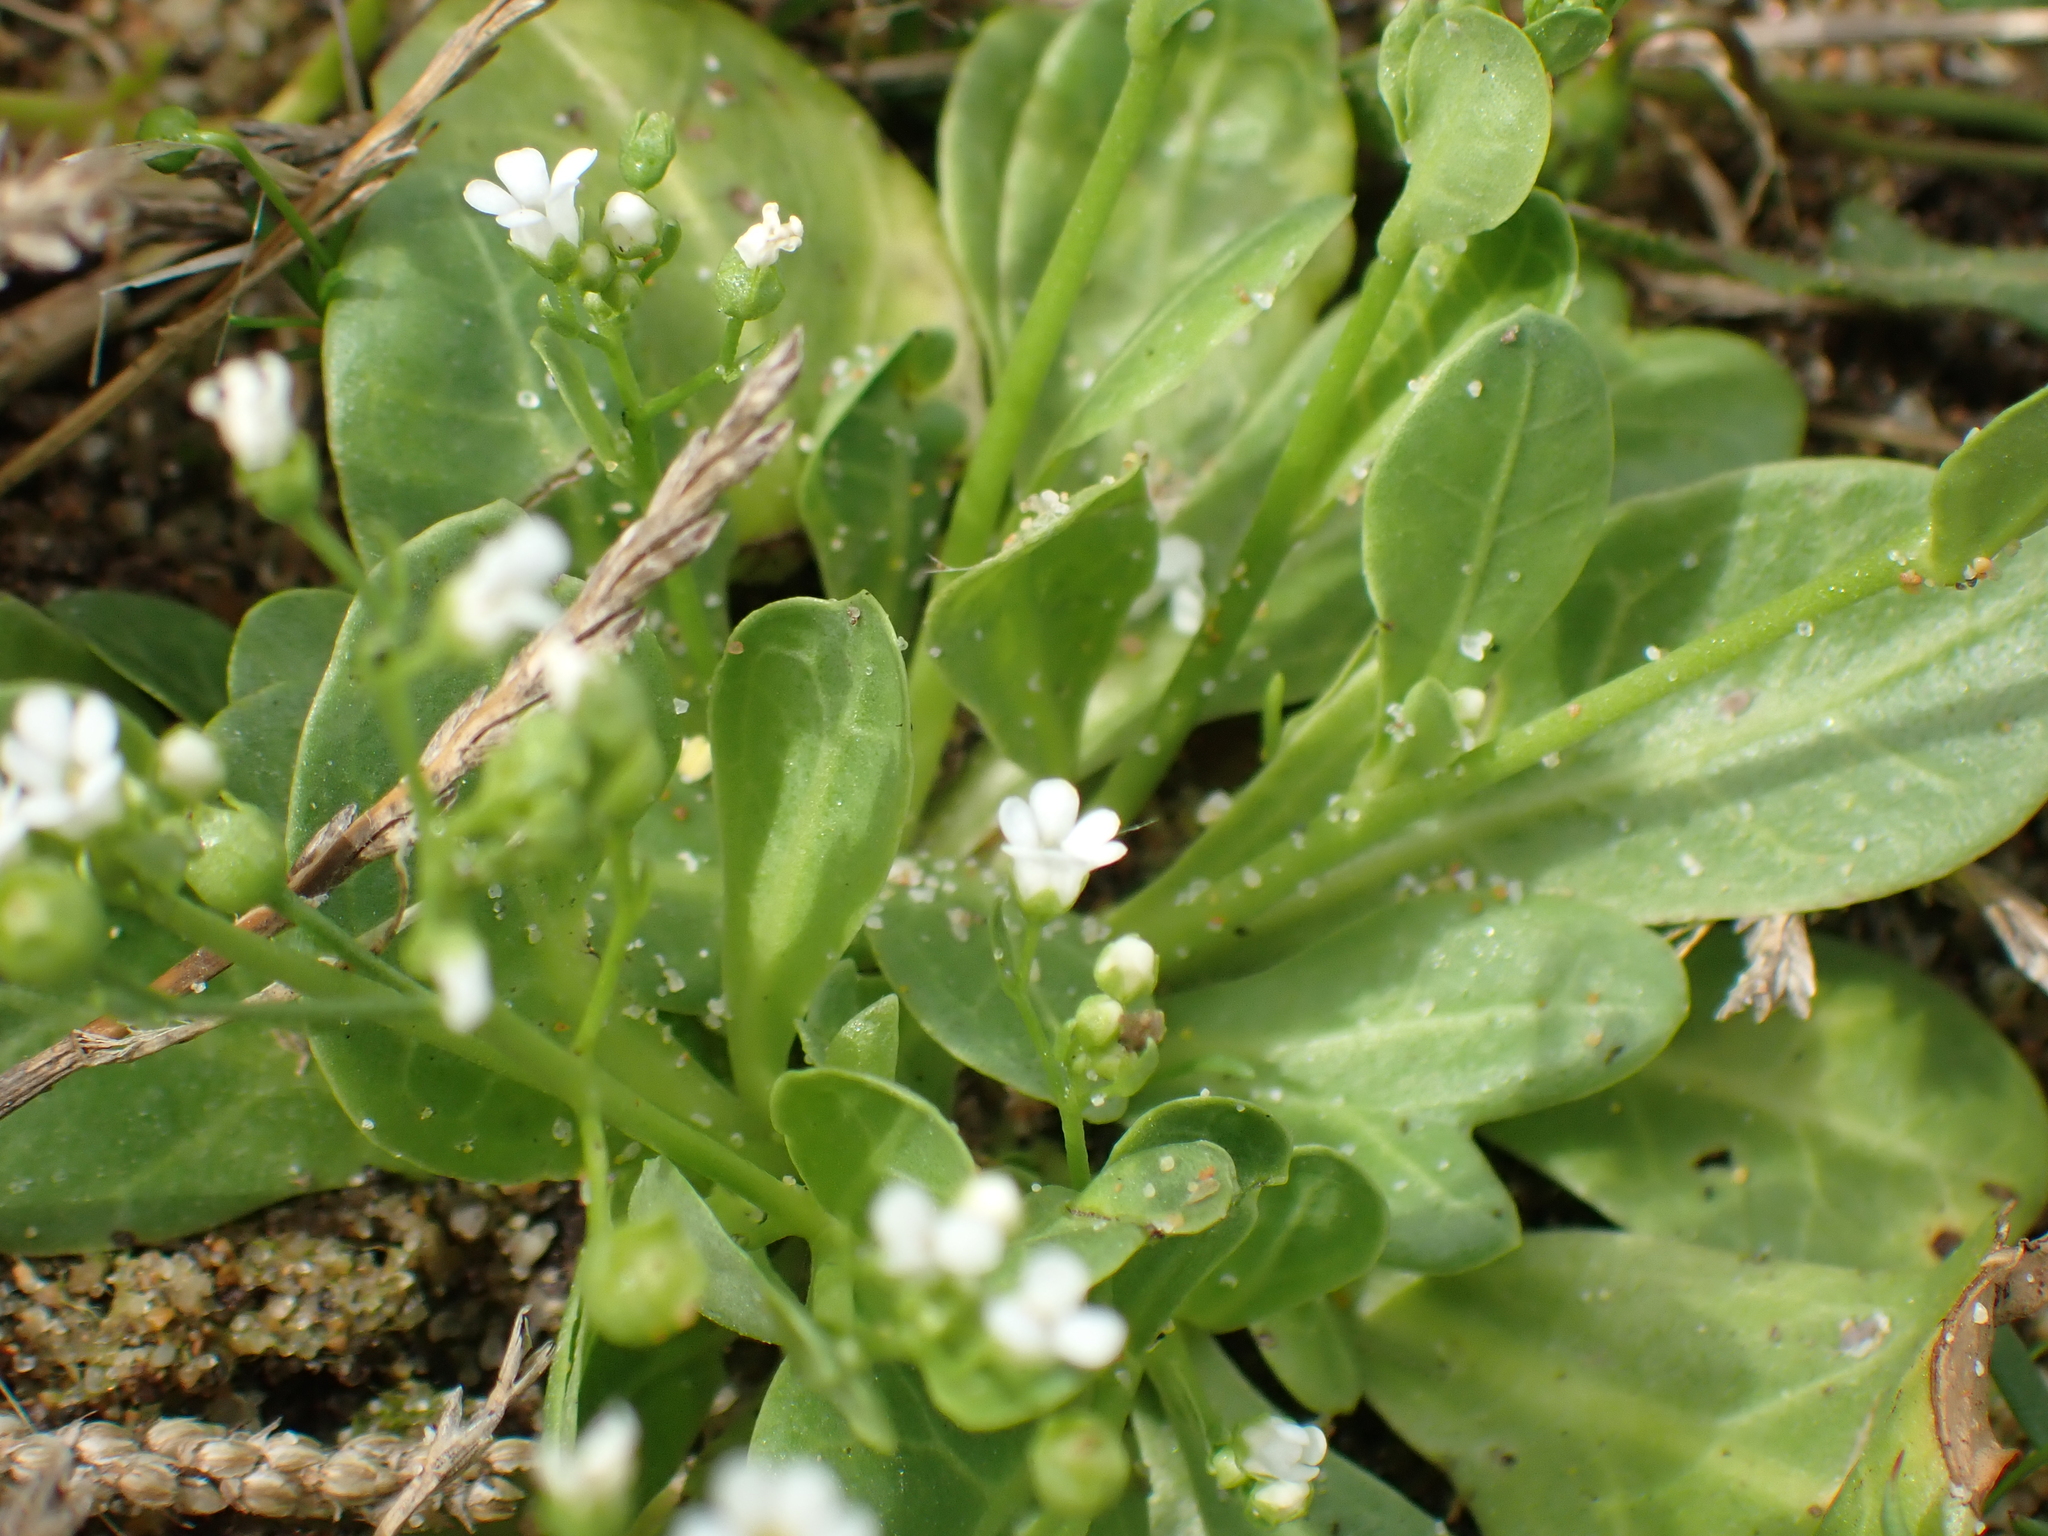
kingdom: Plantae
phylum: Tracheophyta
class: Magnoliopsida
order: Ericales
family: Primulaceae
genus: Samolus
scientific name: Samolus valerandi
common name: Brookweed
